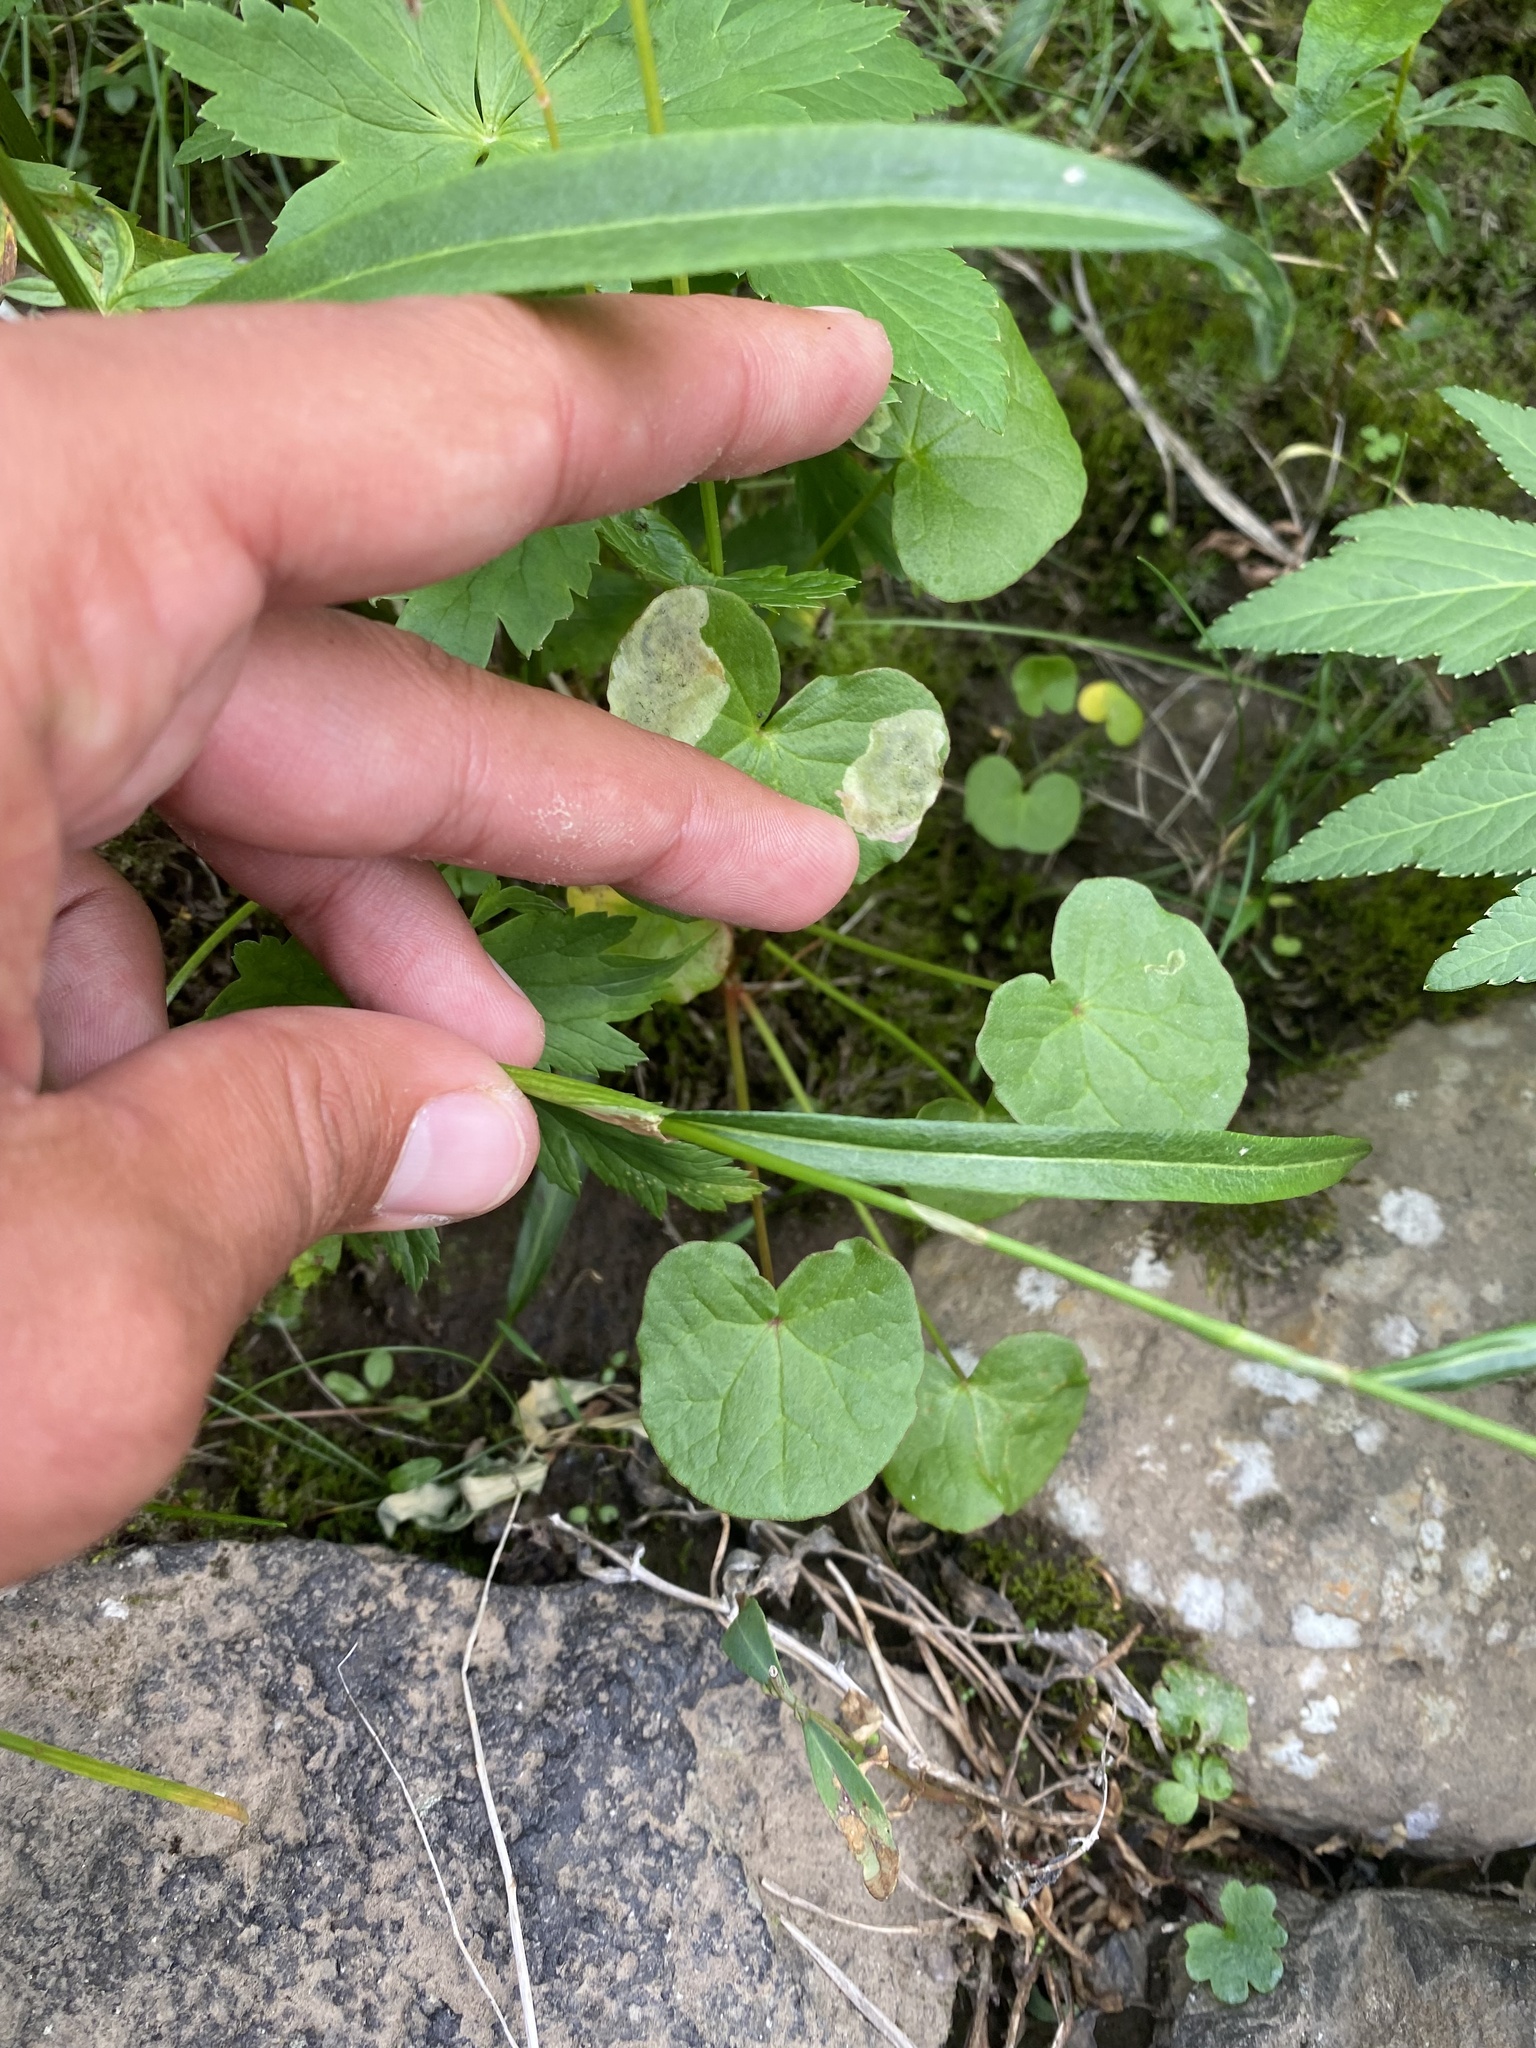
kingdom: Plantae
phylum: Tracheophyta
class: Magnoliopsida
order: Caryophyllales
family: Polygonaceae
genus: Bistorta
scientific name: Bistorta vivipara
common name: Alpine bistort
